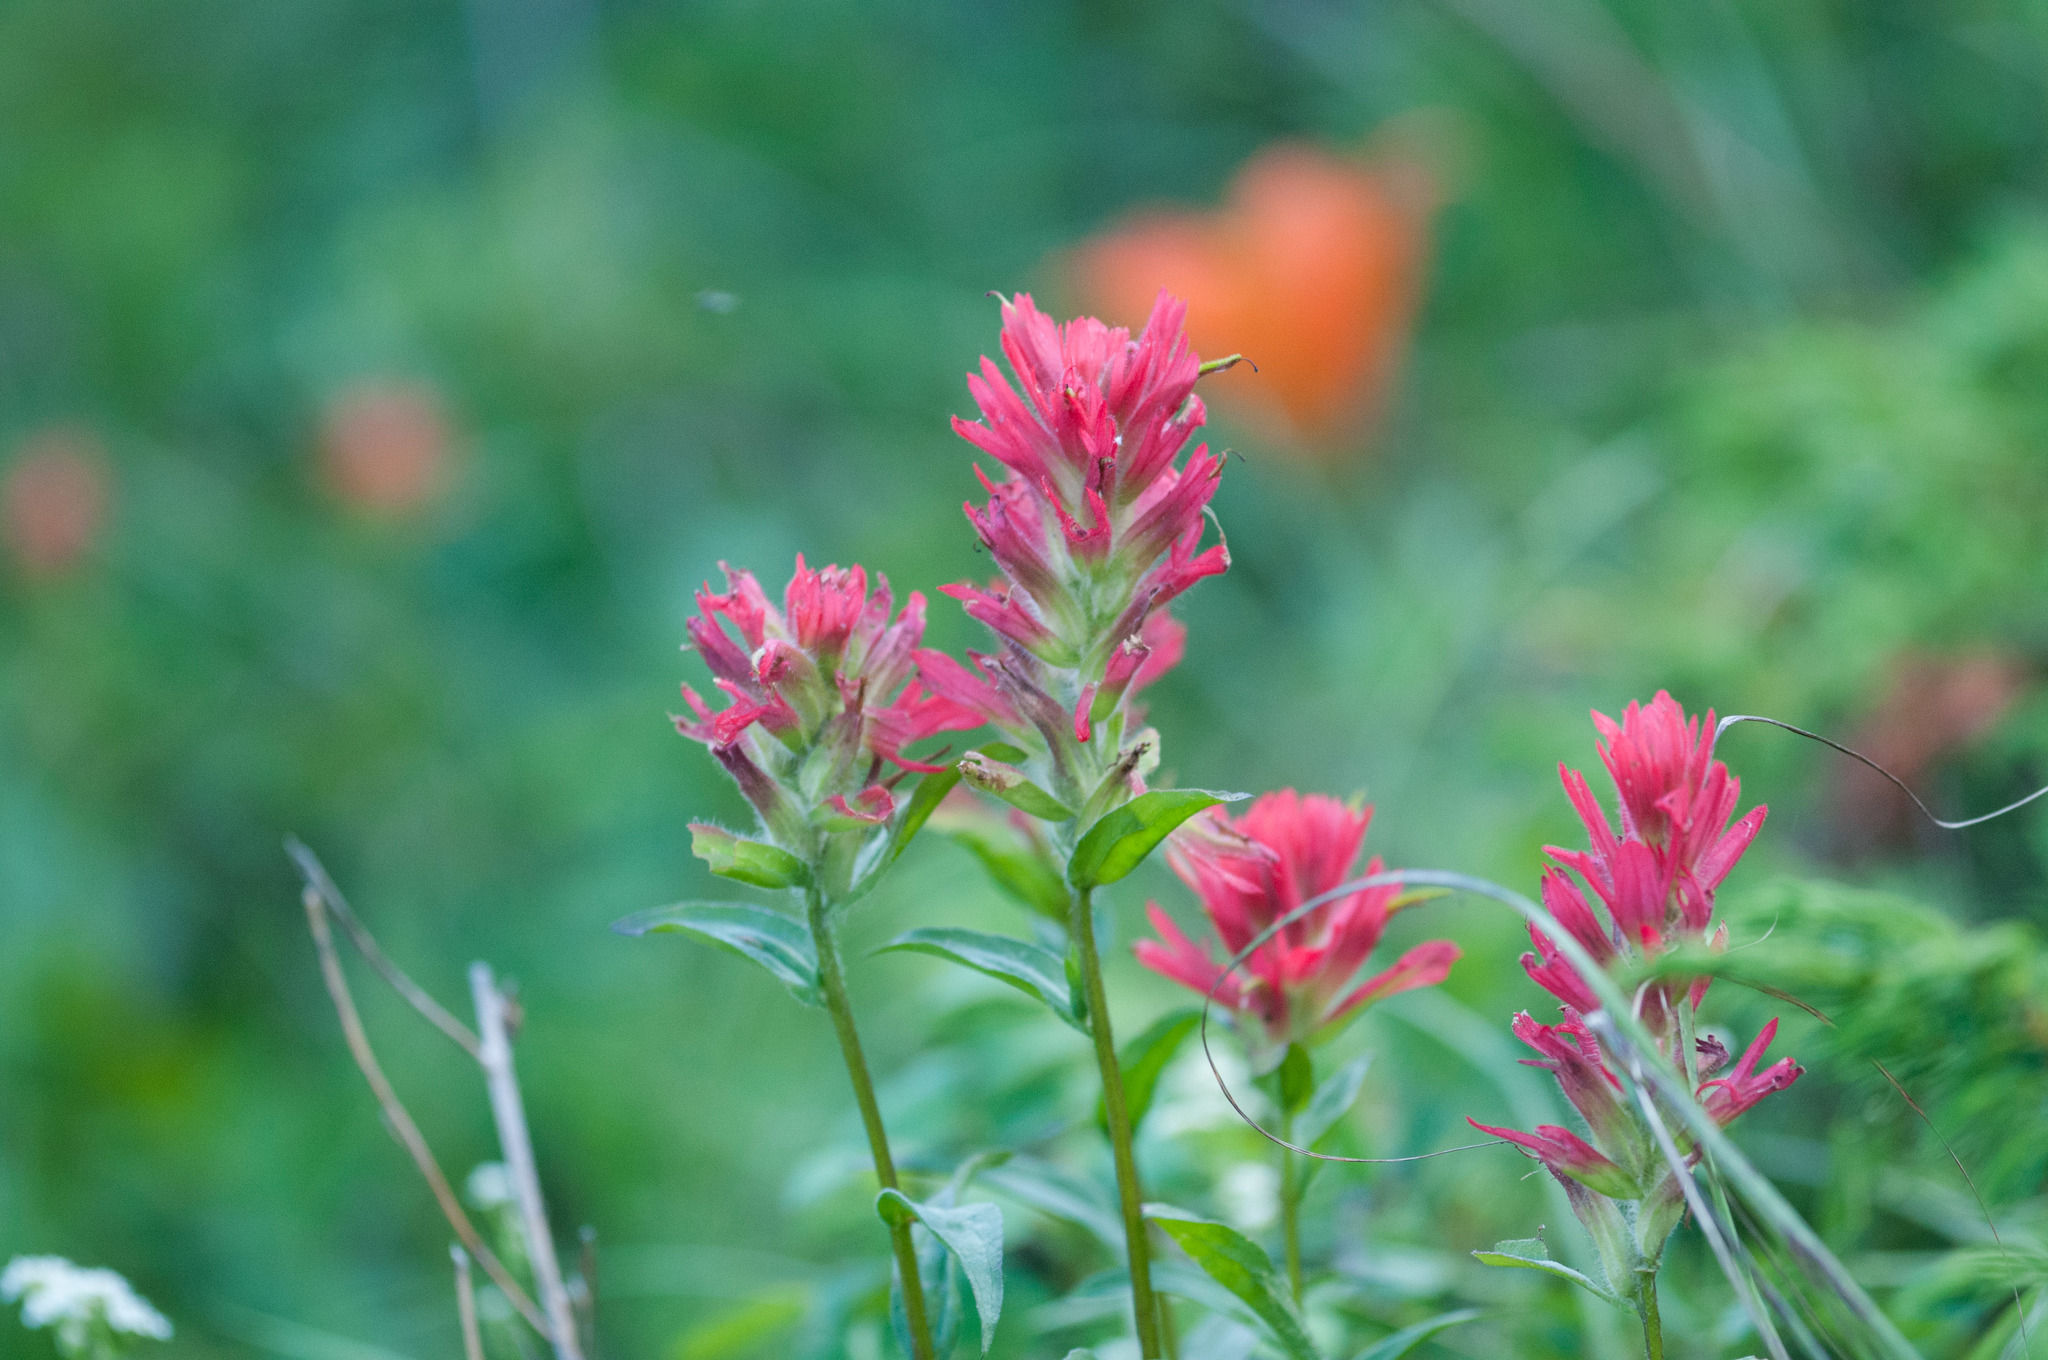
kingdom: Plantae
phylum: Tracheophyta
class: Magnoliopsida
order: Lamiales
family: Orobanchaceae
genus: Castilleja
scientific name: Castilleja miniata
